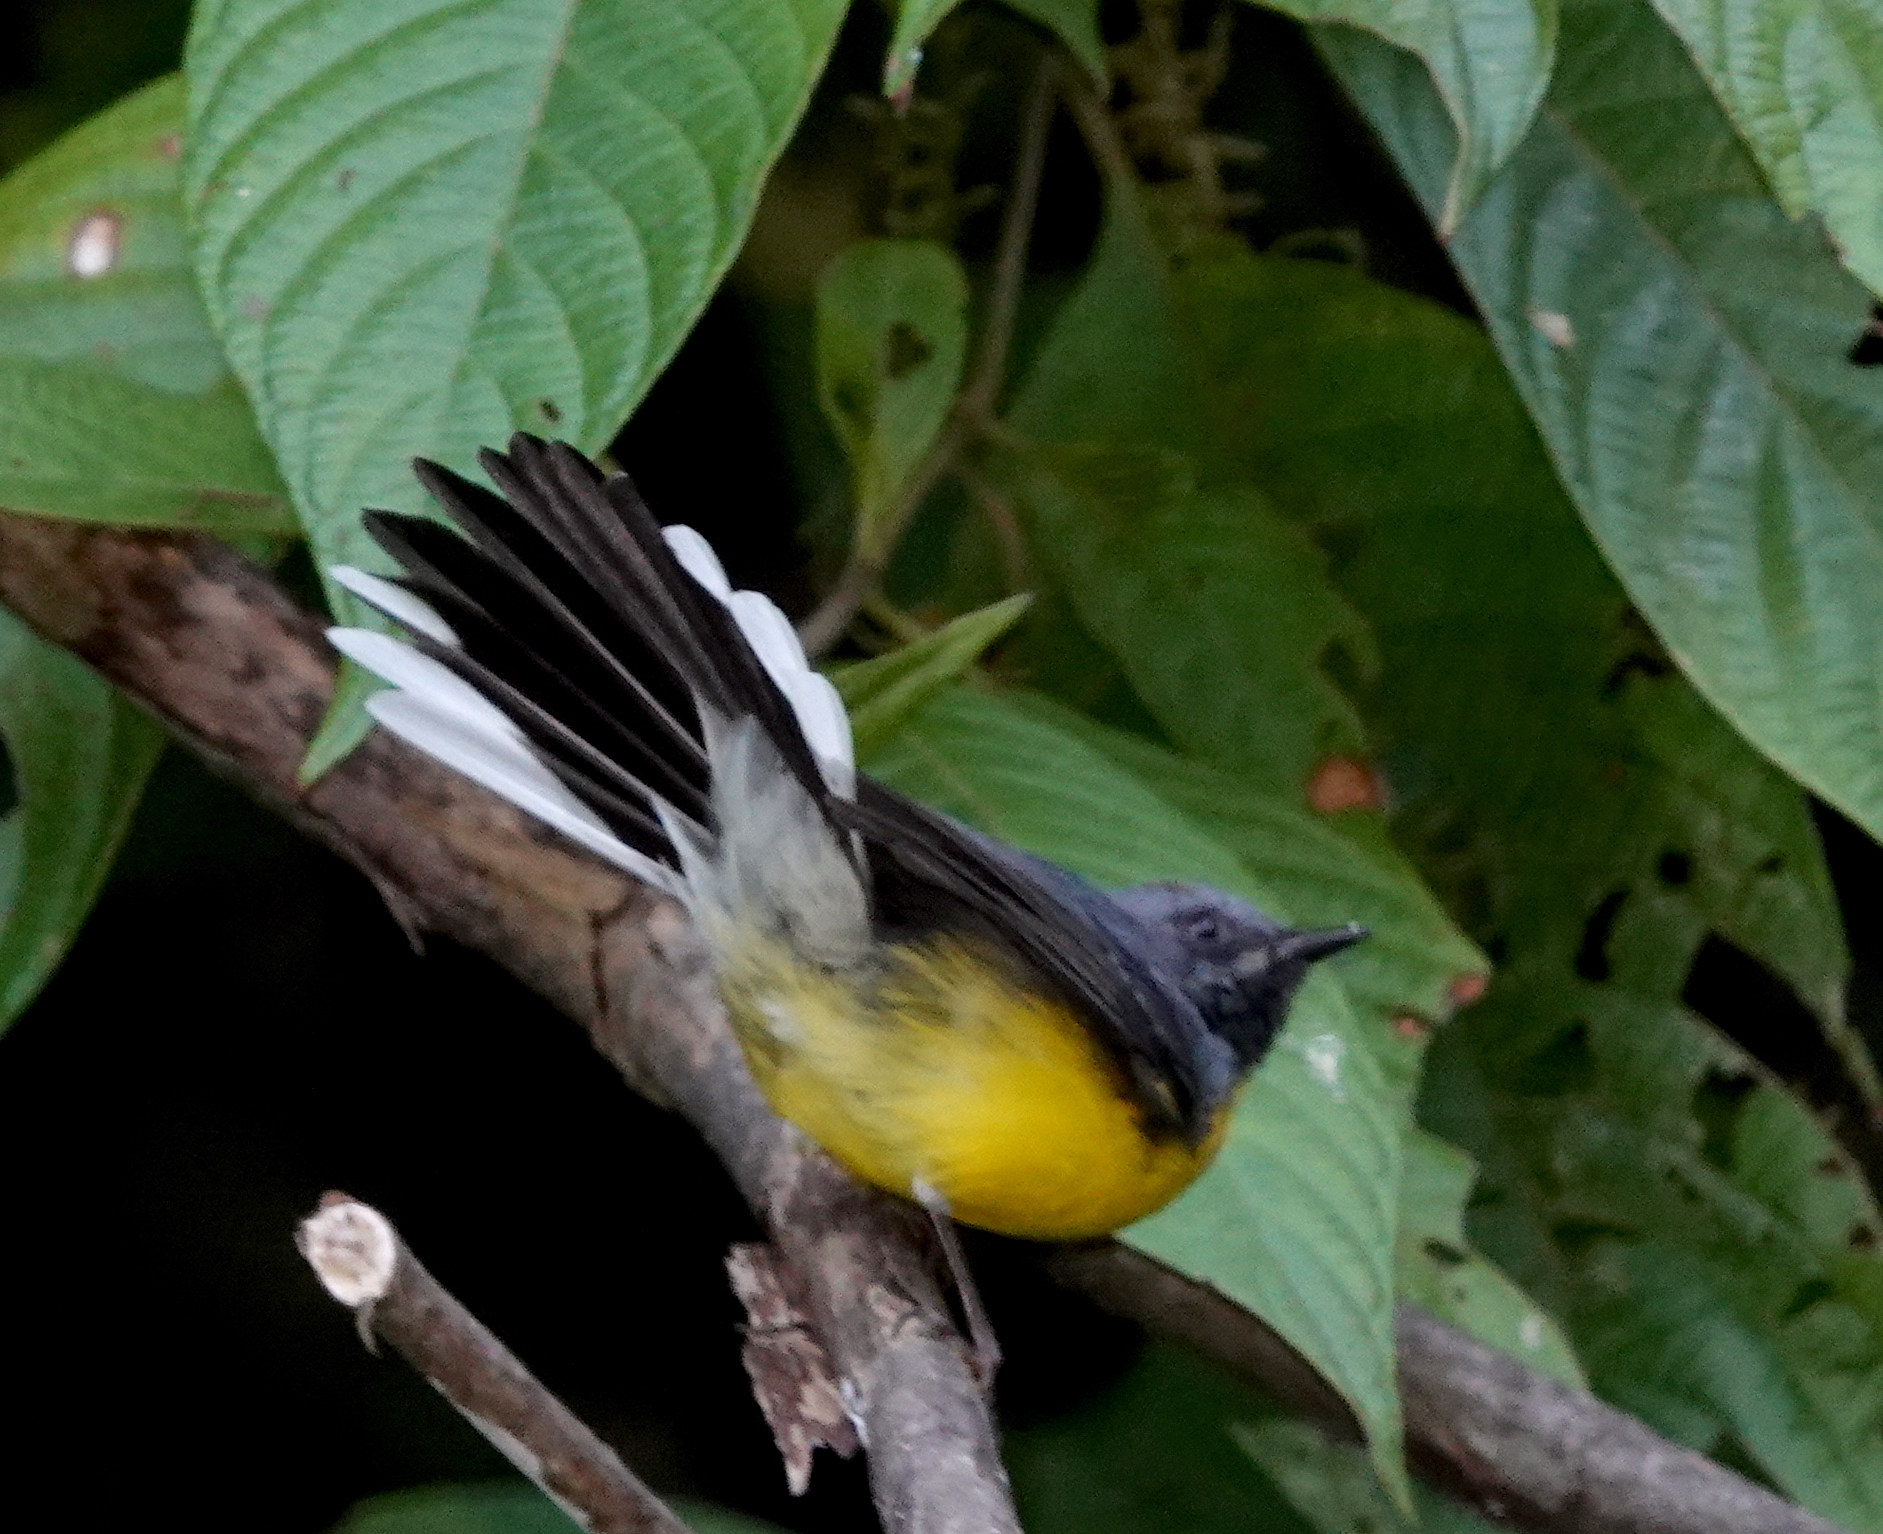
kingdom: Animalia
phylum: Chordata
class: Aves
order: Passeriformes
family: Parulidae
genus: Myioborus
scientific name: Myioborus miniatus
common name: Slate-throated redstart
